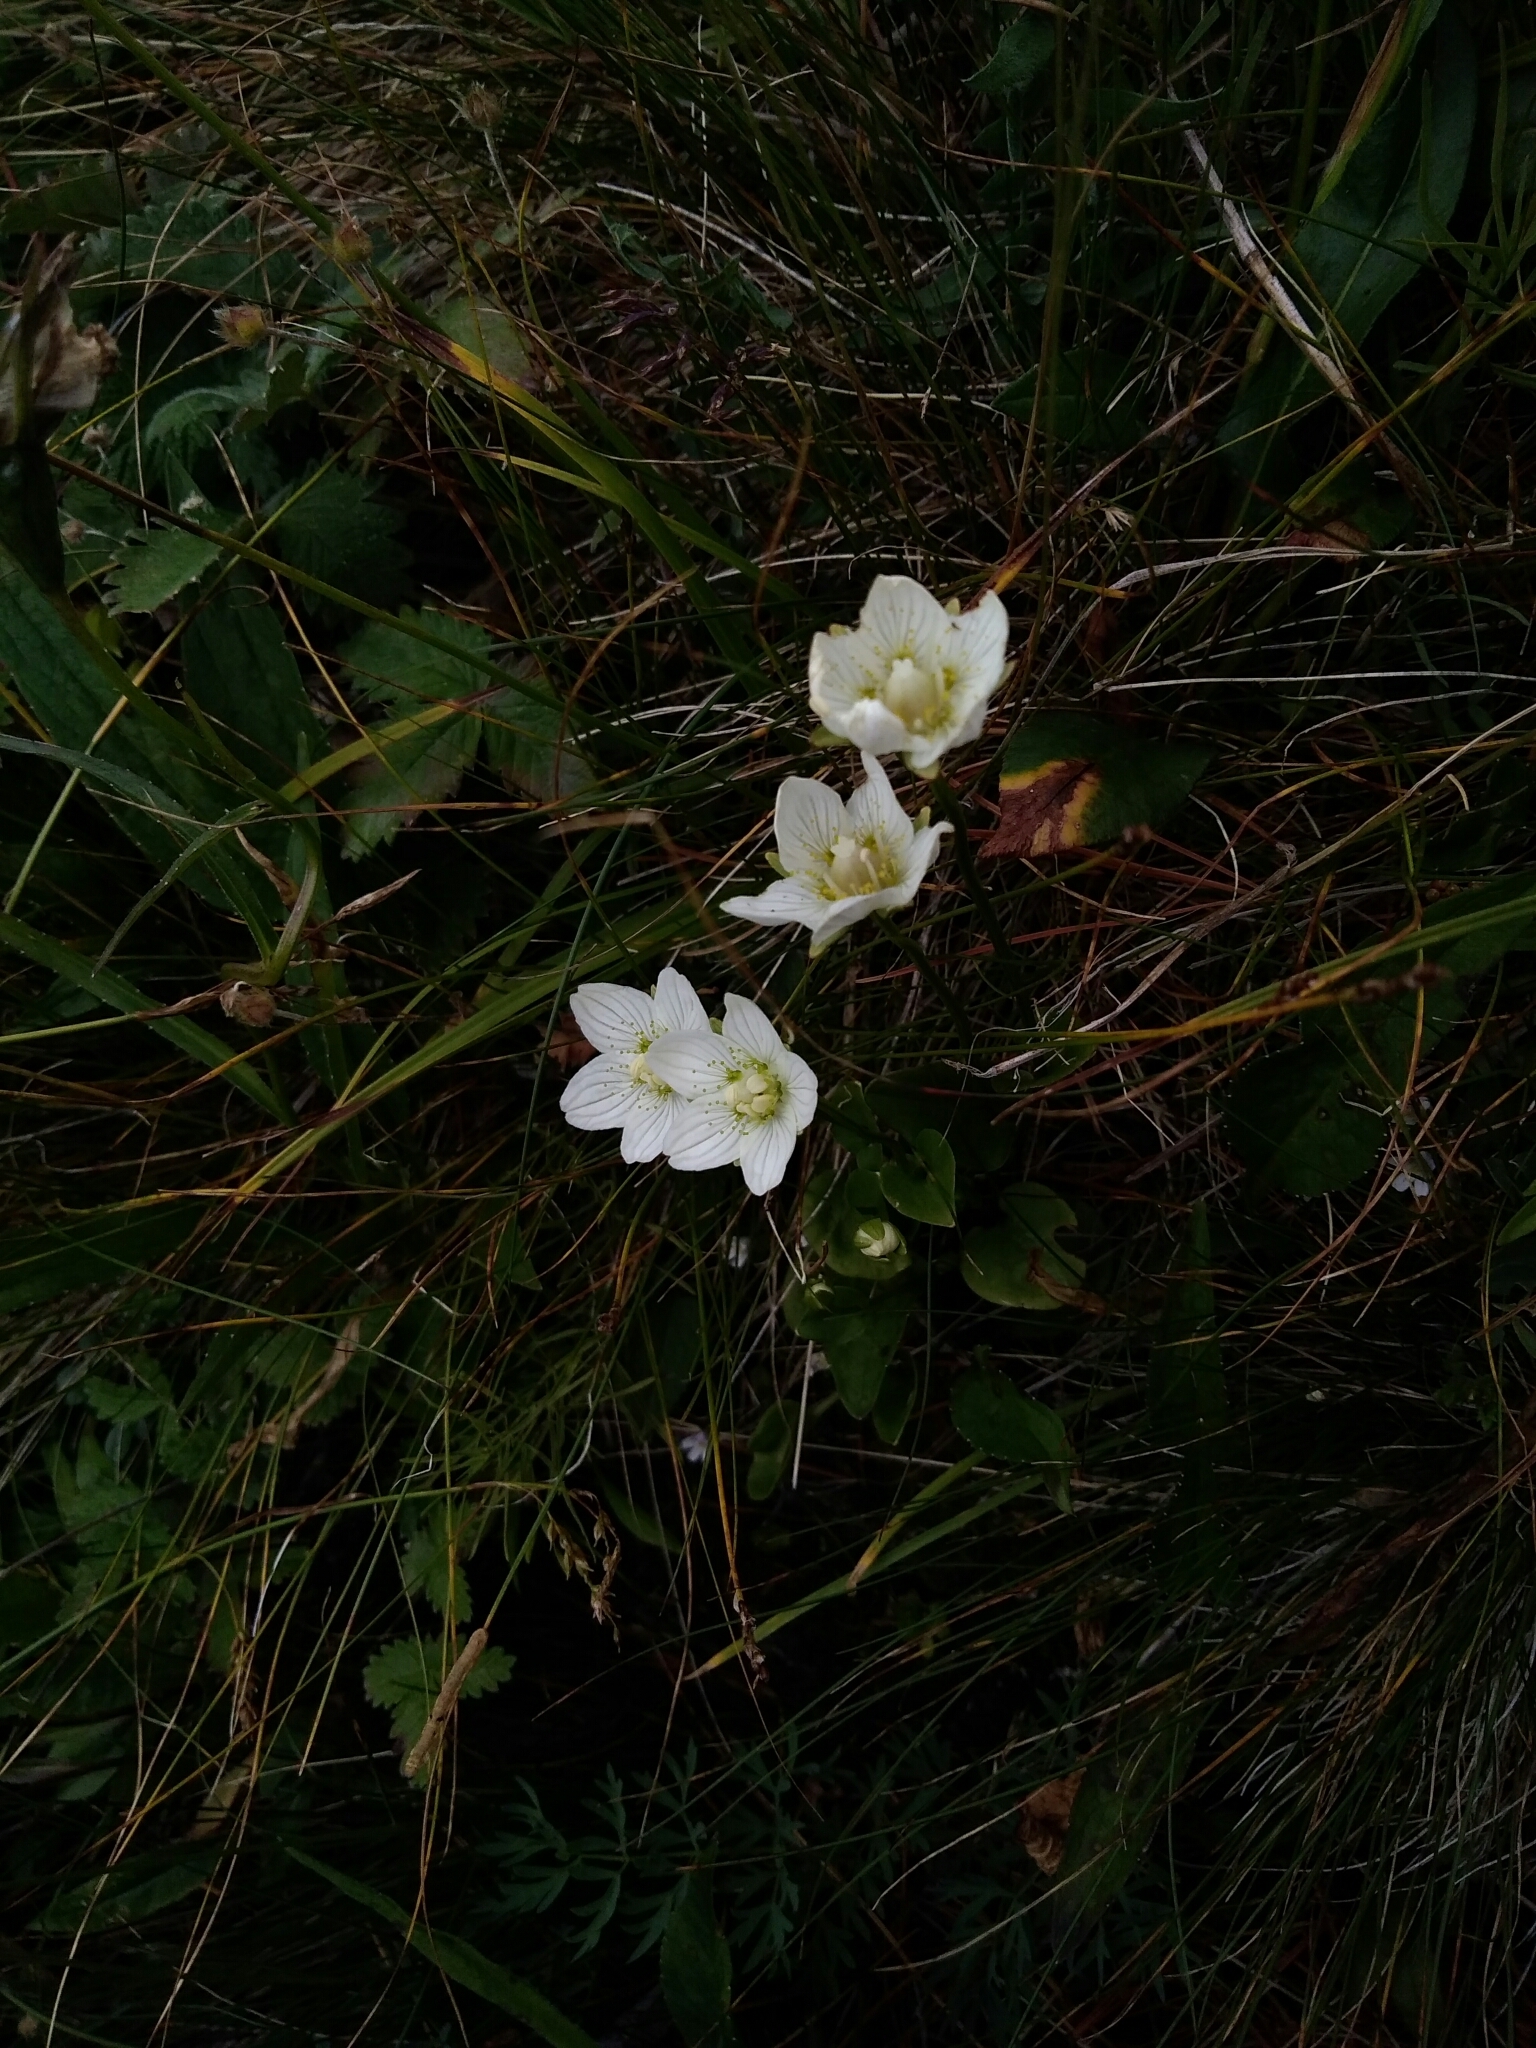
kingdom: Plantae
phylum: Tracheophyta
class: Magnoliopsida
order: Celastrales
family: Parnassiaceae
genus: Parnassia
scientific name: Parnassia palustris
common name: Grass-of-parnassus
